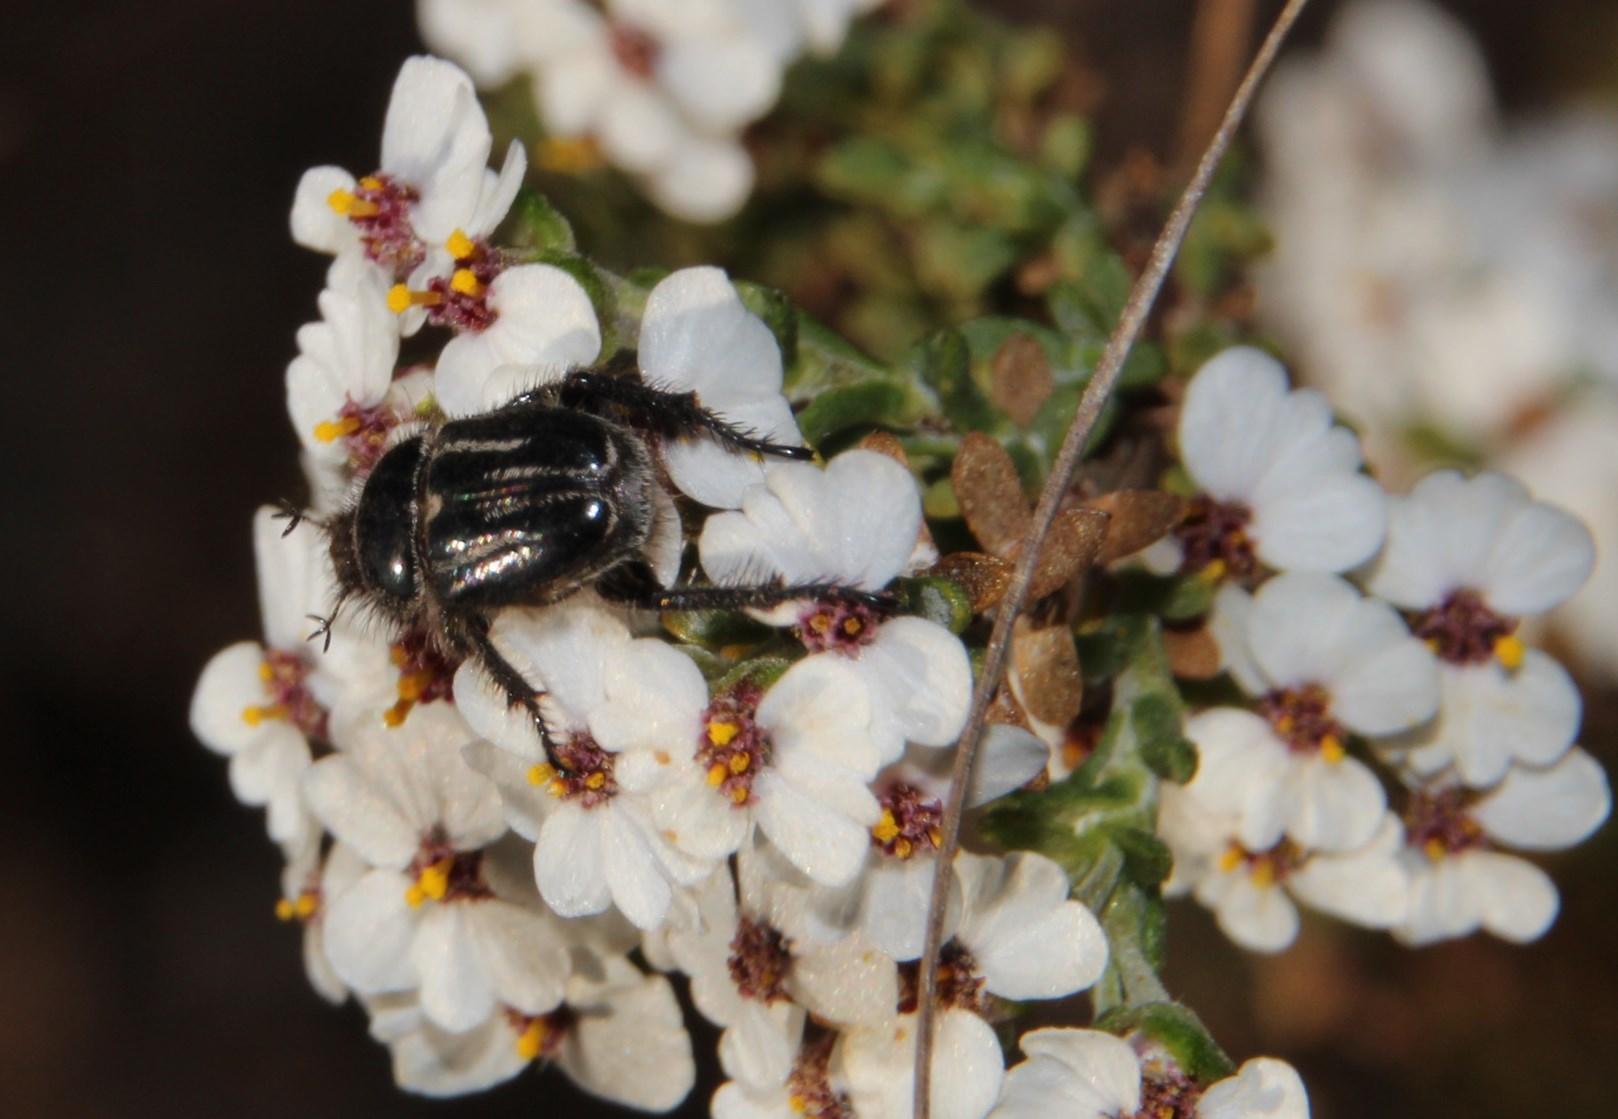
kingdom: Plantae
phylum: Tracheophyta
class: Magnoliopsida
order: Asterales
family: Asteraceae
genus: Eriocephalus
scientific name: Eriocephalus africanus
